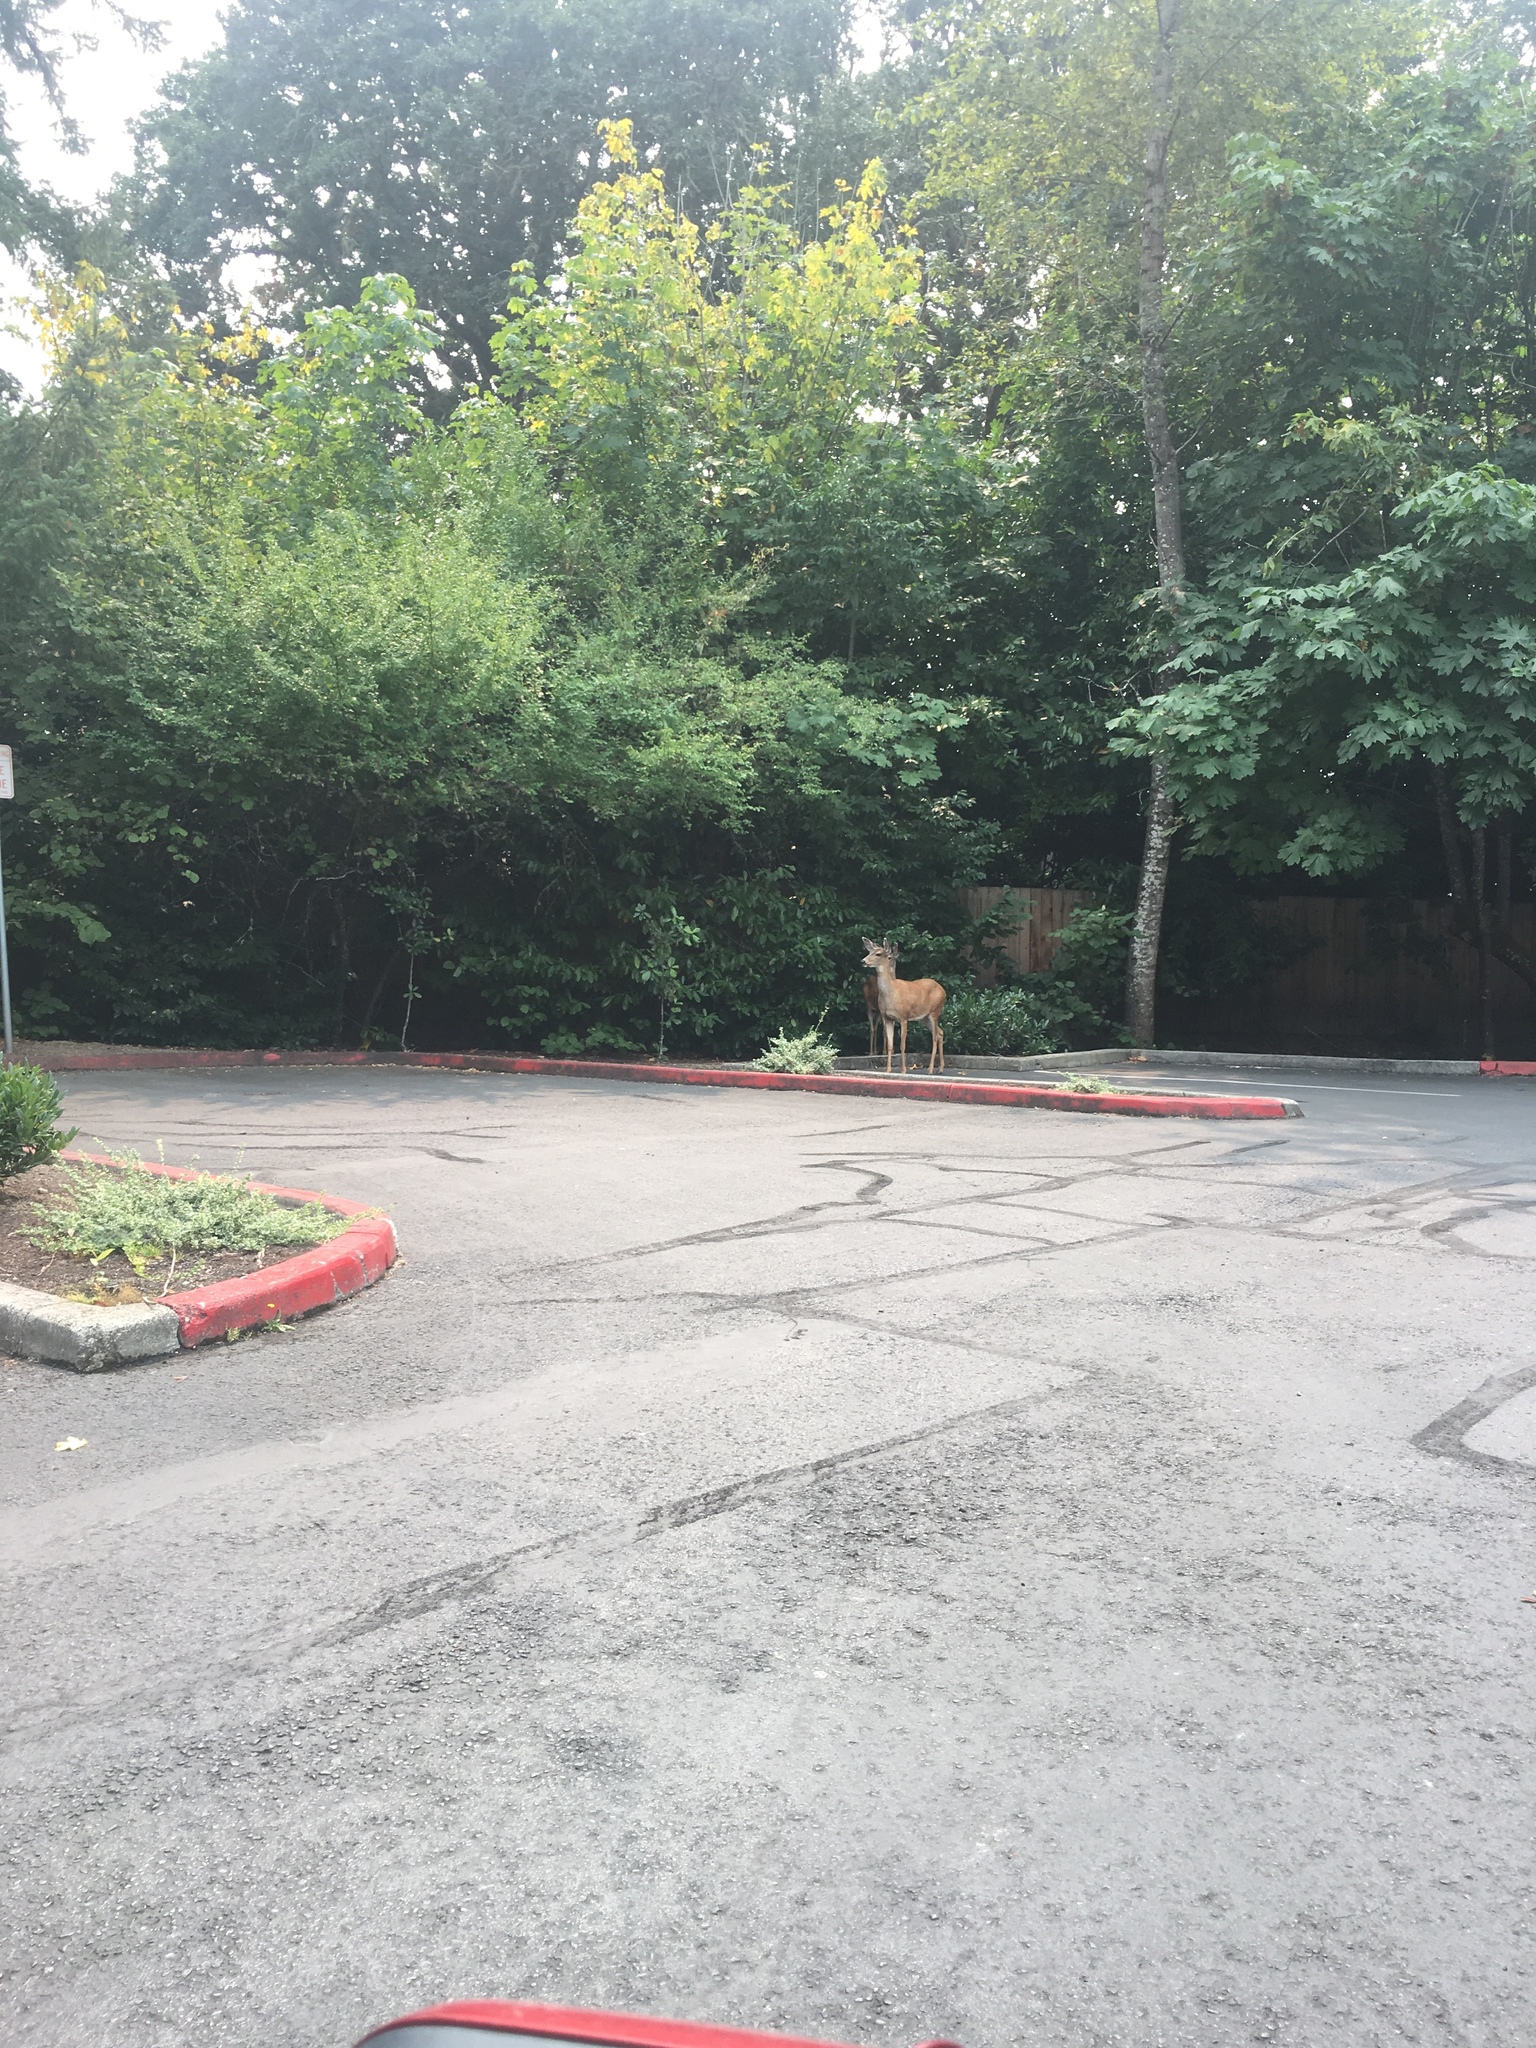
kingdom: Animalia
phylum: Chordata
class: Mammalia
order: Artiodactyla
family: Cervidae
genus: Odocoileus
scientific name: Odocoileus hemionus
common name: Mule deer
